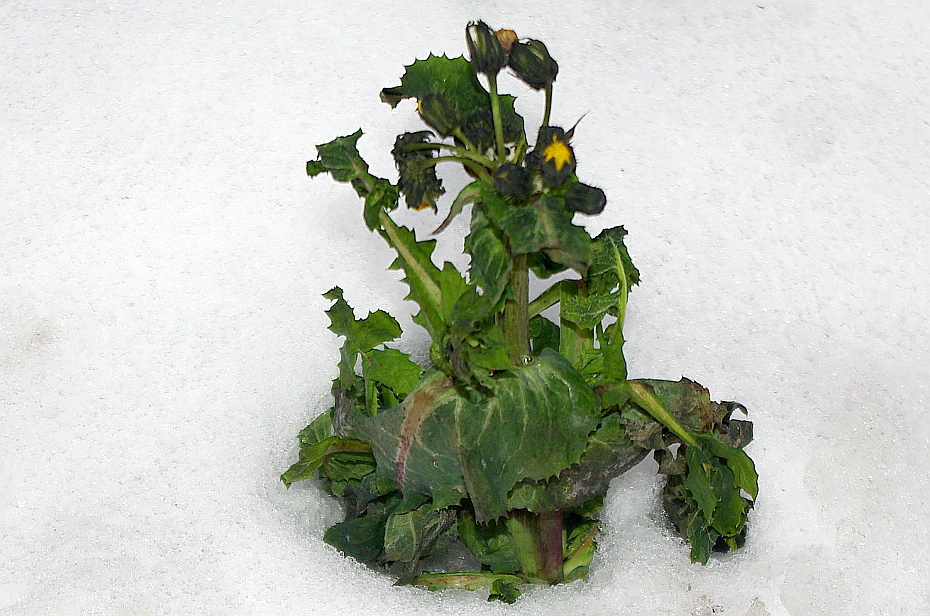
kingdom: Plantae
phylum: Tracheophyta
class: Magnoliopsida
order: Asterales
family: Asteraceae
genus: Sonchus
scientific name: Sonchus oleraceus
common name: Common sowthistle
